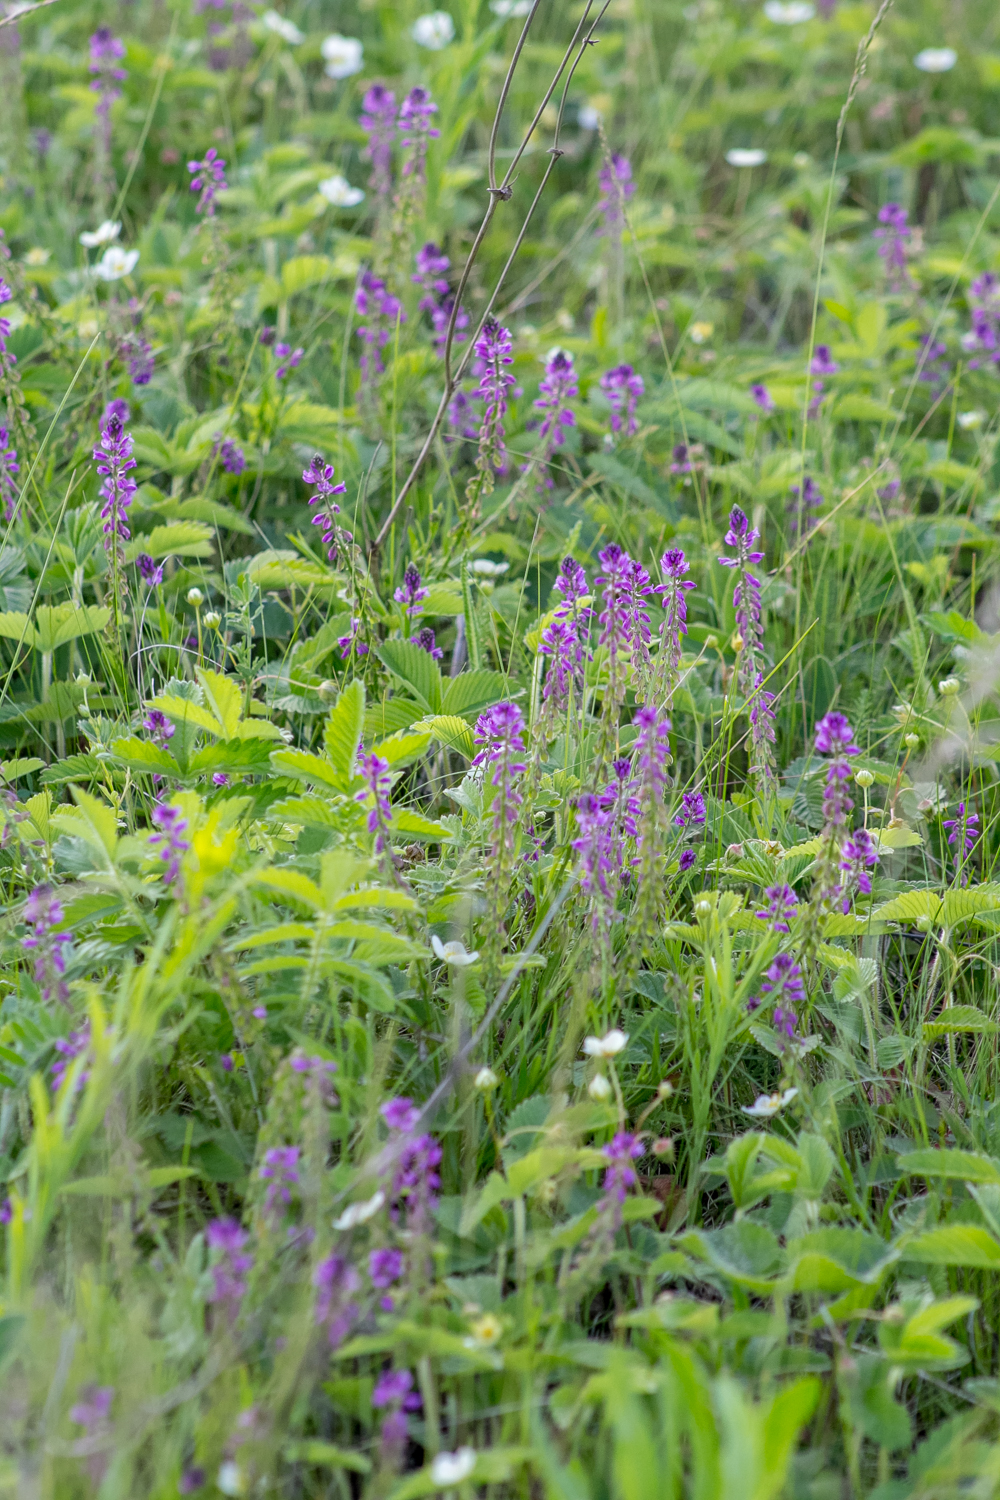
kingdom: Plantae
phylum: Tracheophyta
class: Magnoliopsida
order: Fabales
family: Polygalaceae
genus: Polygala
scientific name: Polygala comosa
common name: Tufted milkwort
